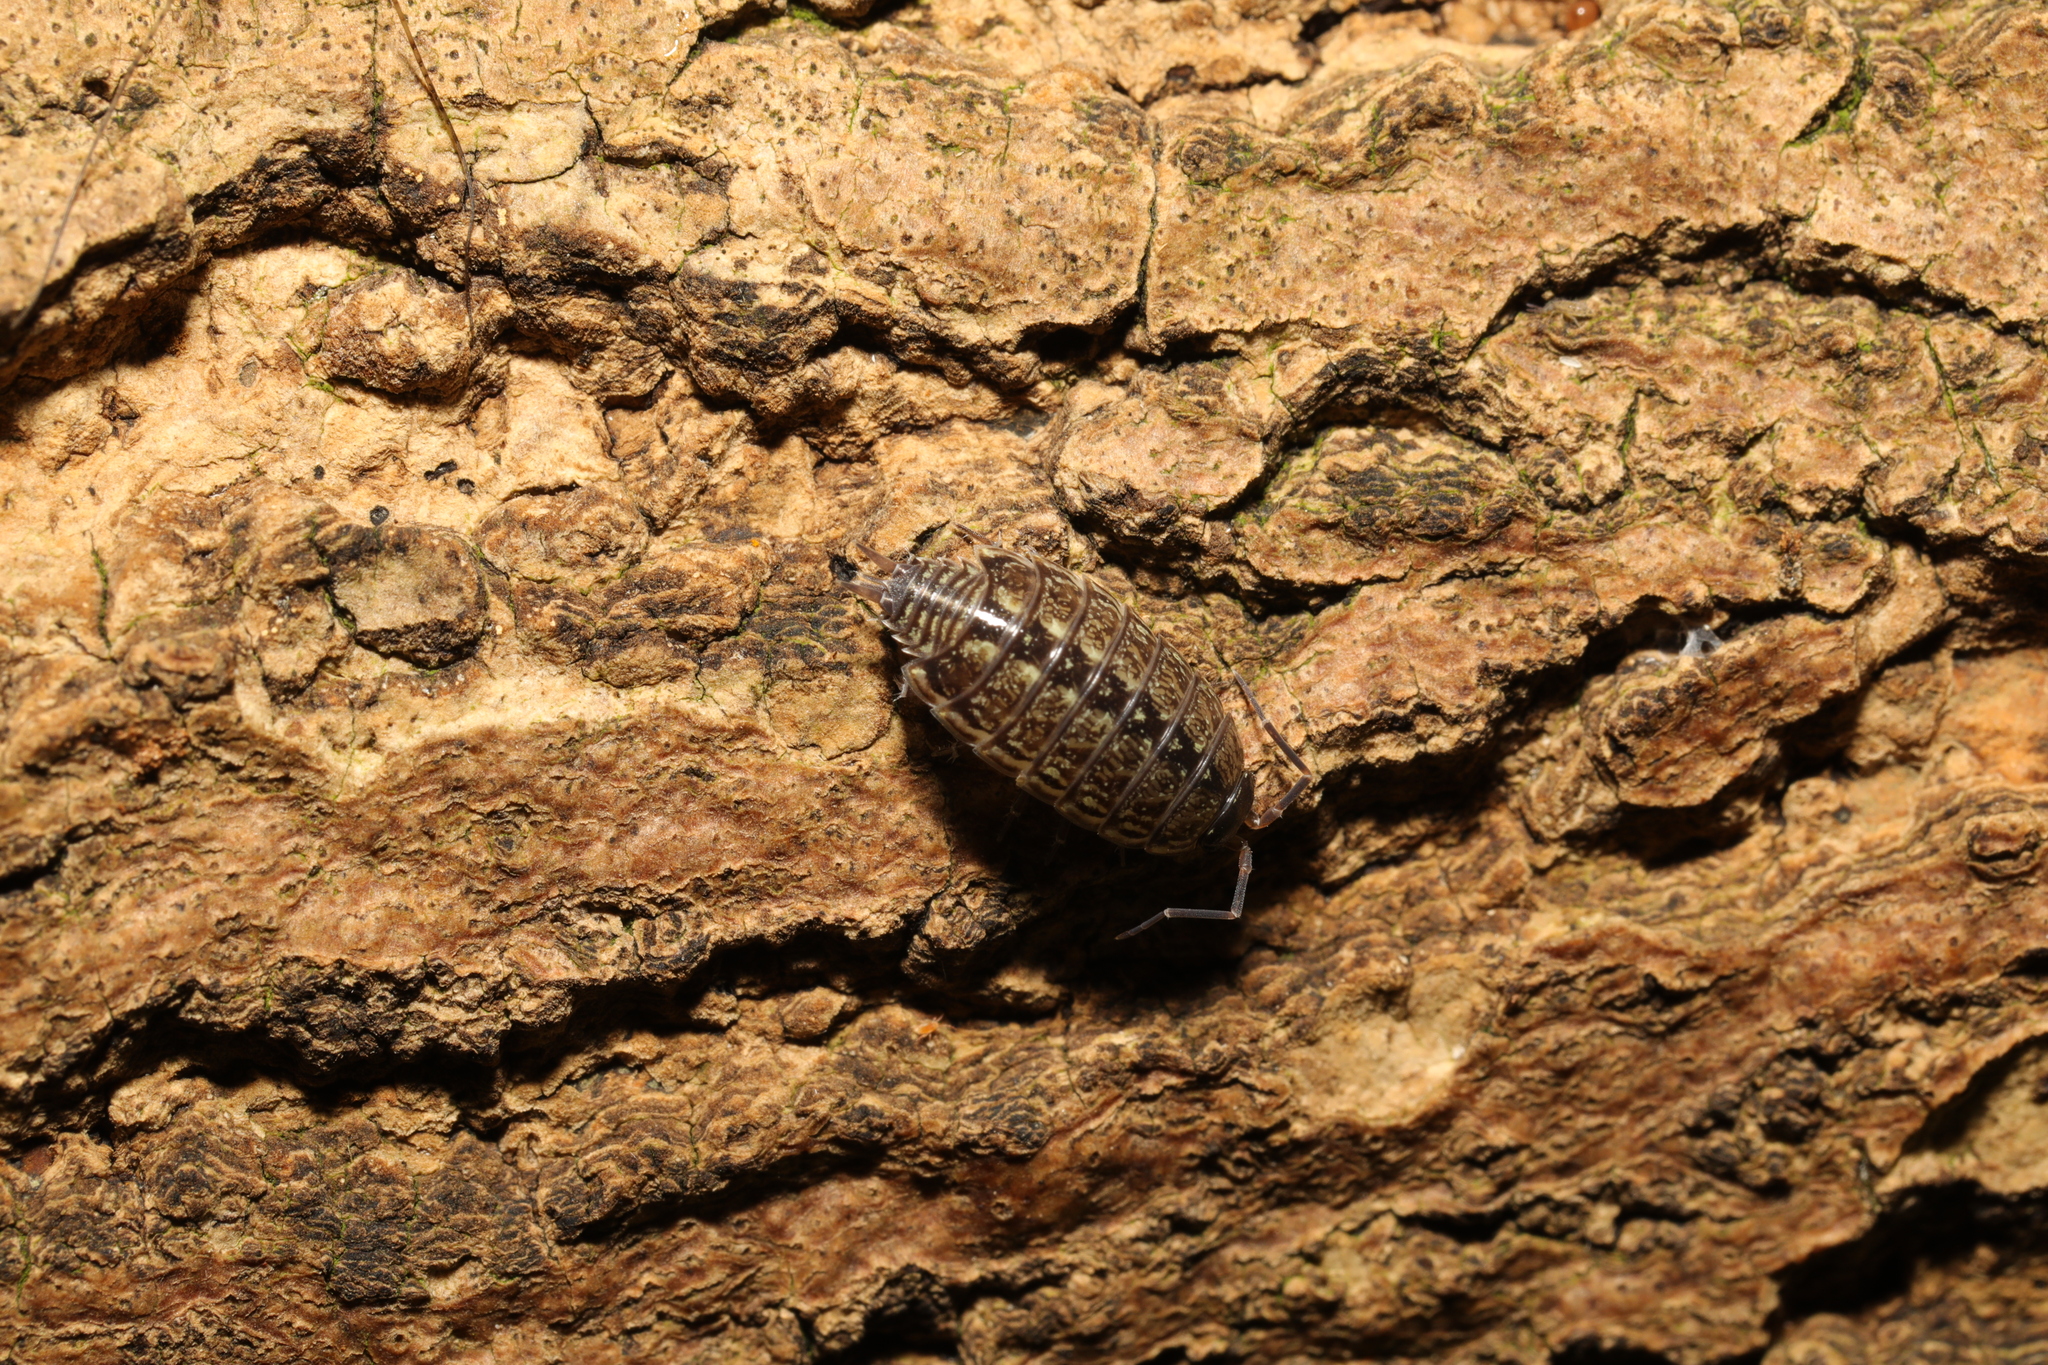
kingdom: Animalia
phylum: Arthropoda
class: Malacostraca
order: Isopoda
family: Philosciidae
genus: Philoscia
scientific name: Philoscia muscorum
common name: Common striped woodlouse
